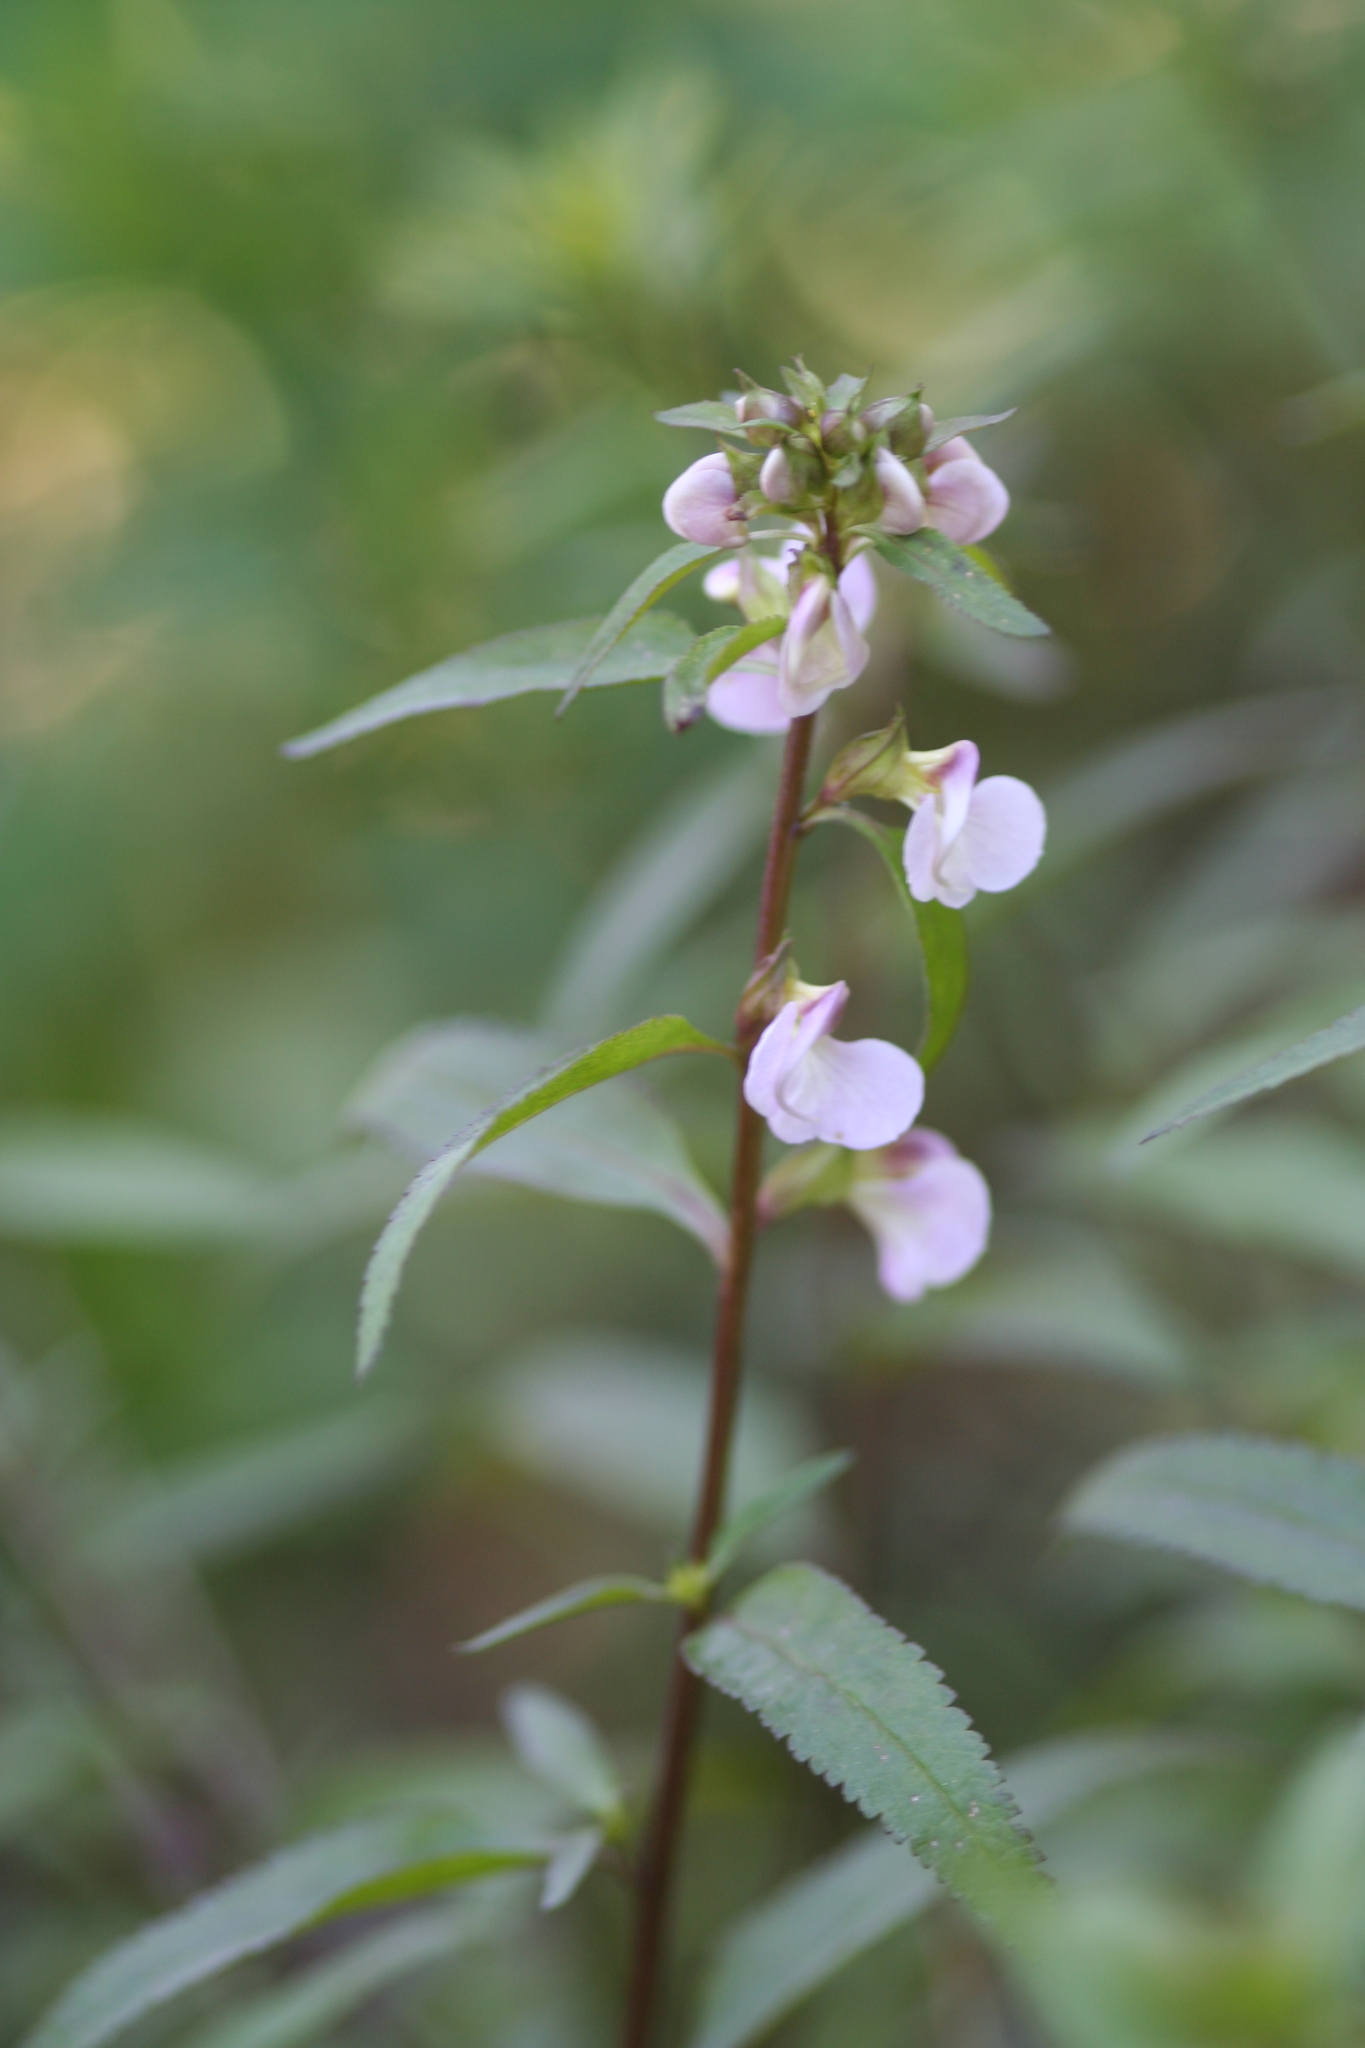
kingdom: Plantae
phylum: Tracheophyta
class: Magnoliopsida
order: Lamiales
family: Orobanchaceae
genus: Pedicularis
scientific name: Pedicularis racemosa
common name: Leafy lousewort
